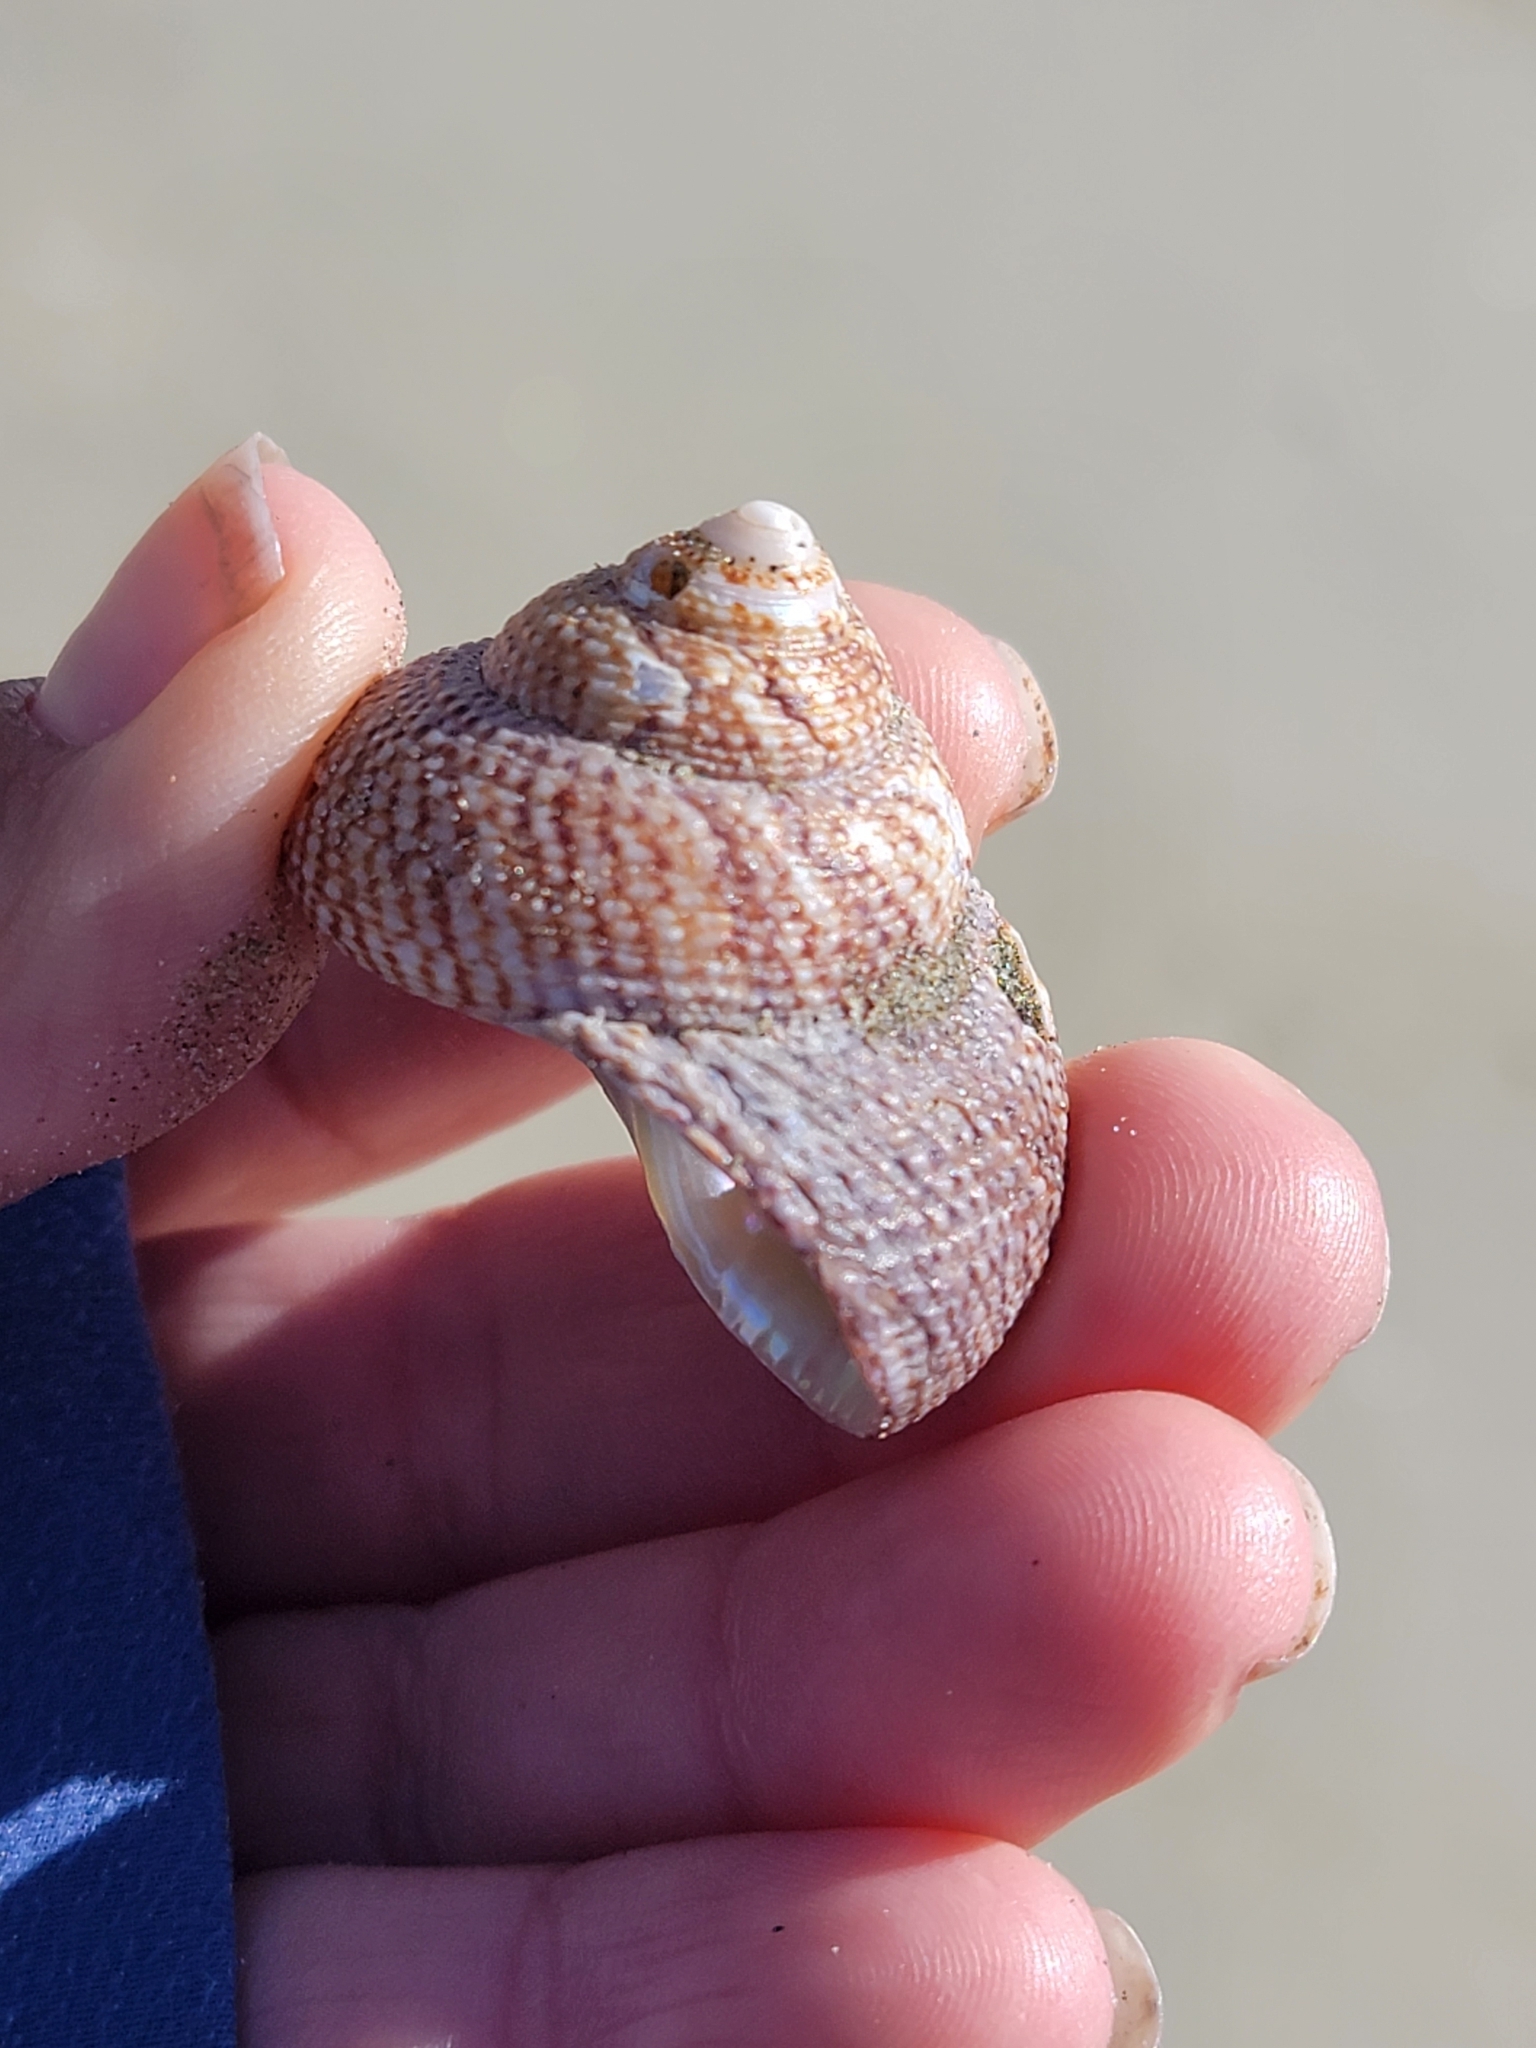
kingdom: Animalia
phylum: Mollusca
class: Gastropoda
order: Trochida
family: Calliostomatidae
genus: Maurea
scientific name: Maurea punctulata
